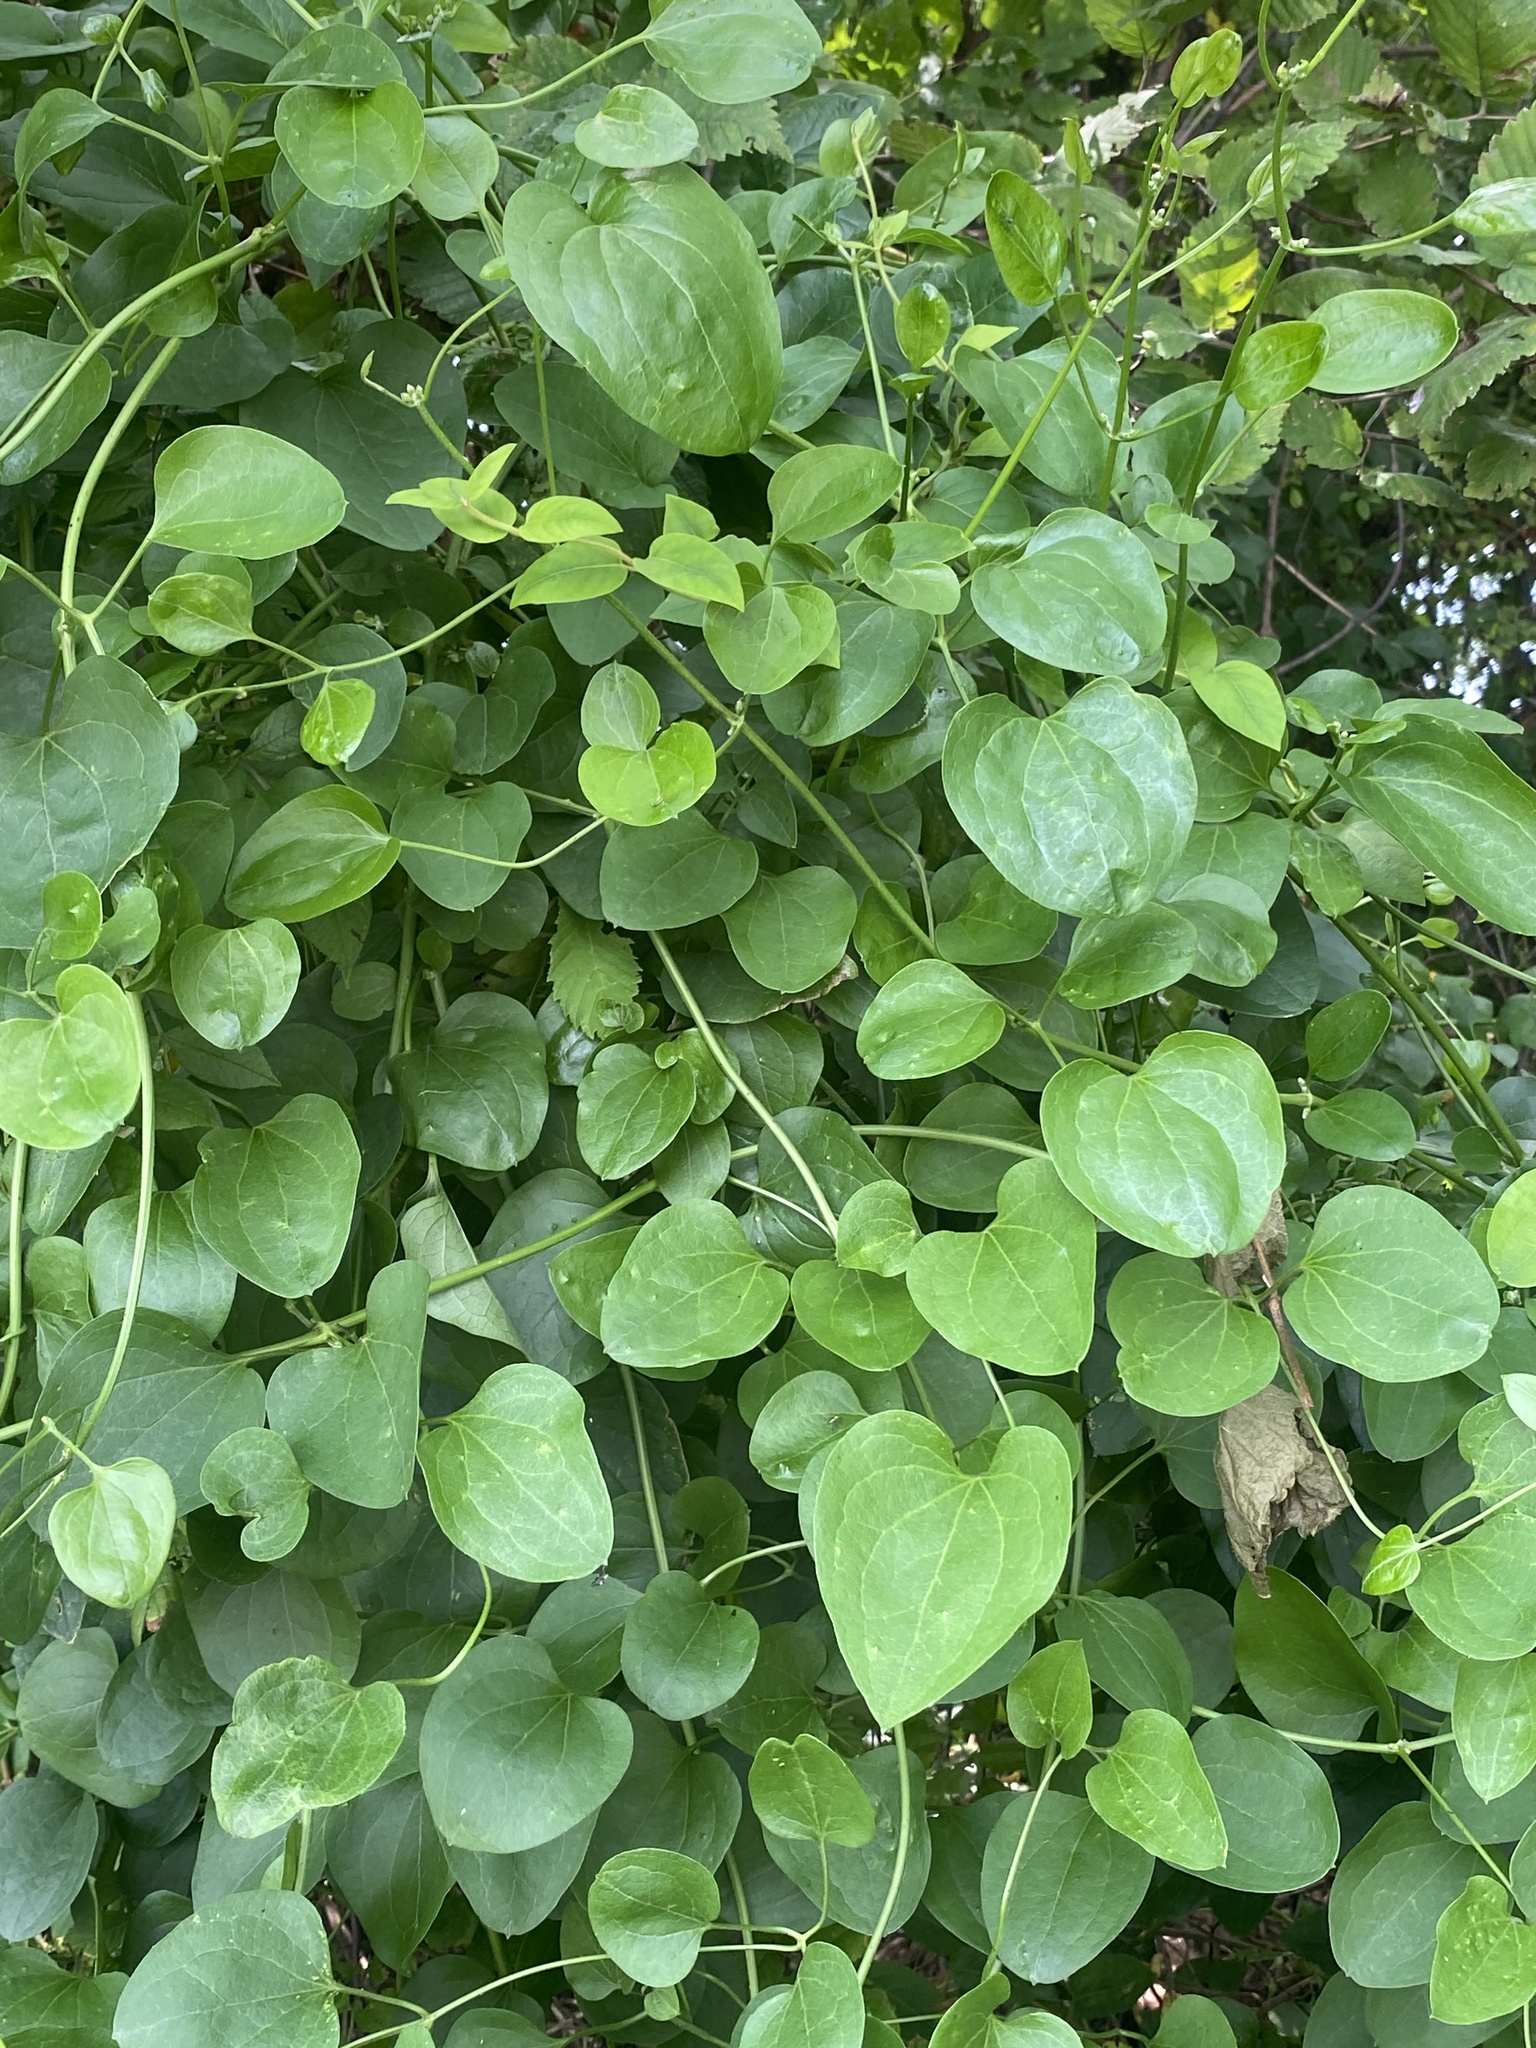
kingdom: Plantae
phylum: Tracheophyta
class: Magnoliopsida
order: Ranunculales
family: Ranunculaceae
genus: Clematis
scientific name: Clematis terniflora
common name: Sweet autumn clematis
